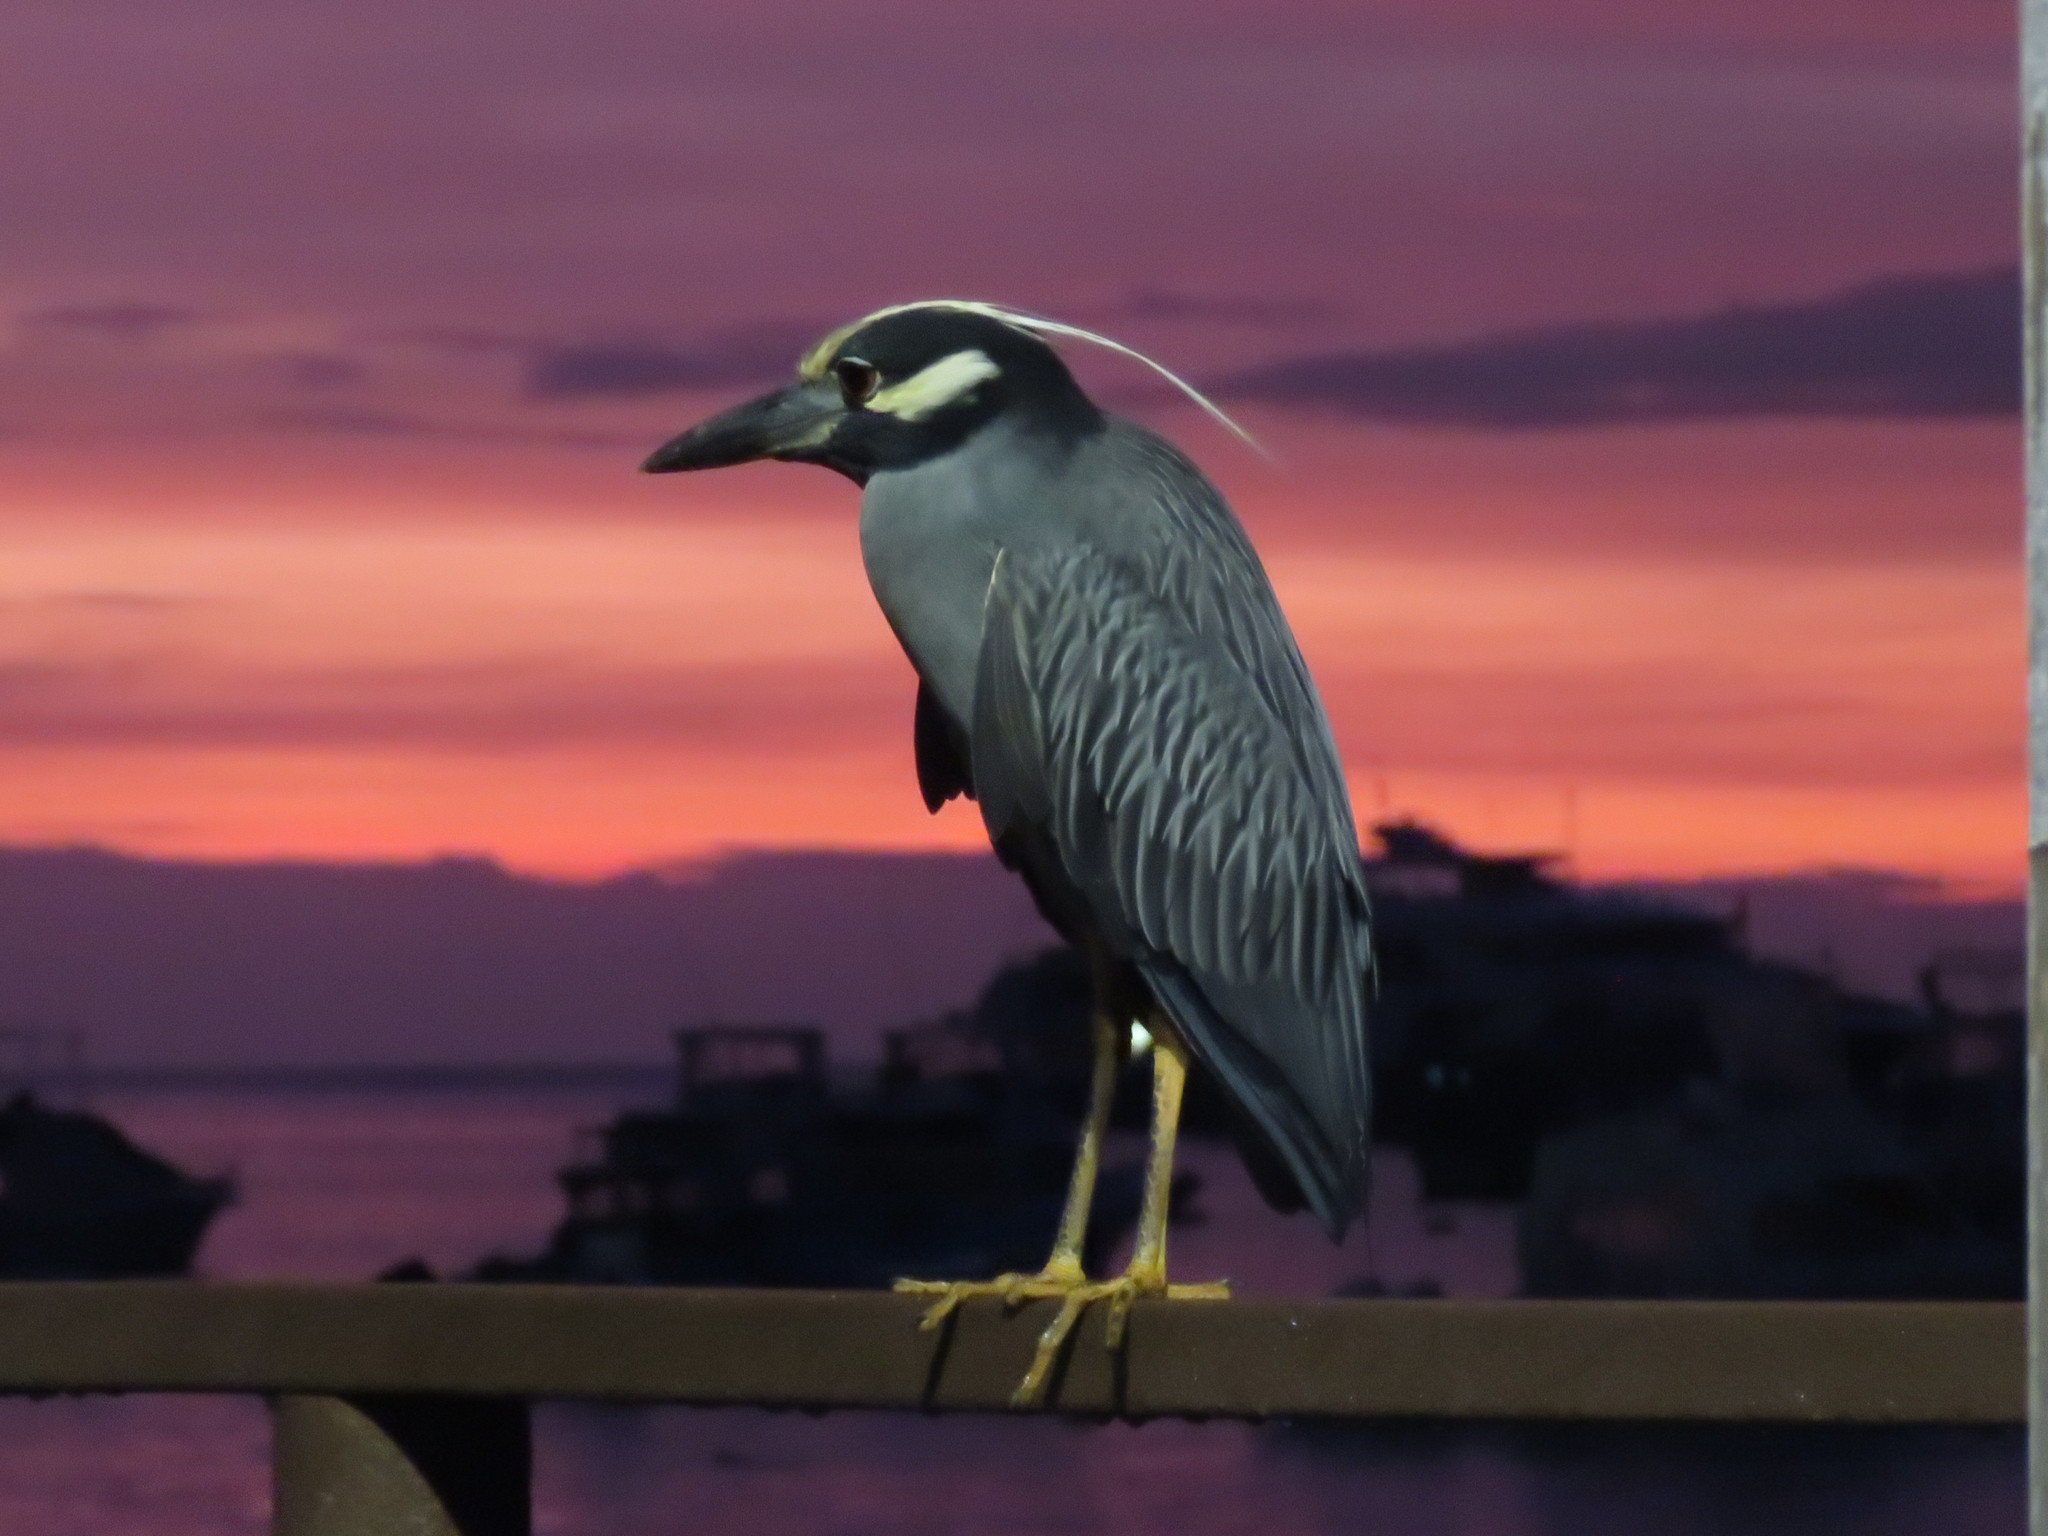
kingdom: Animalia
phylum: Chordata
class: Aves
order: Pelecaniformes
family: Ardeidae
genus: Nyctanassa
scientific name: Nyctanassa violacea
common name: Yellow-crowned night heron
